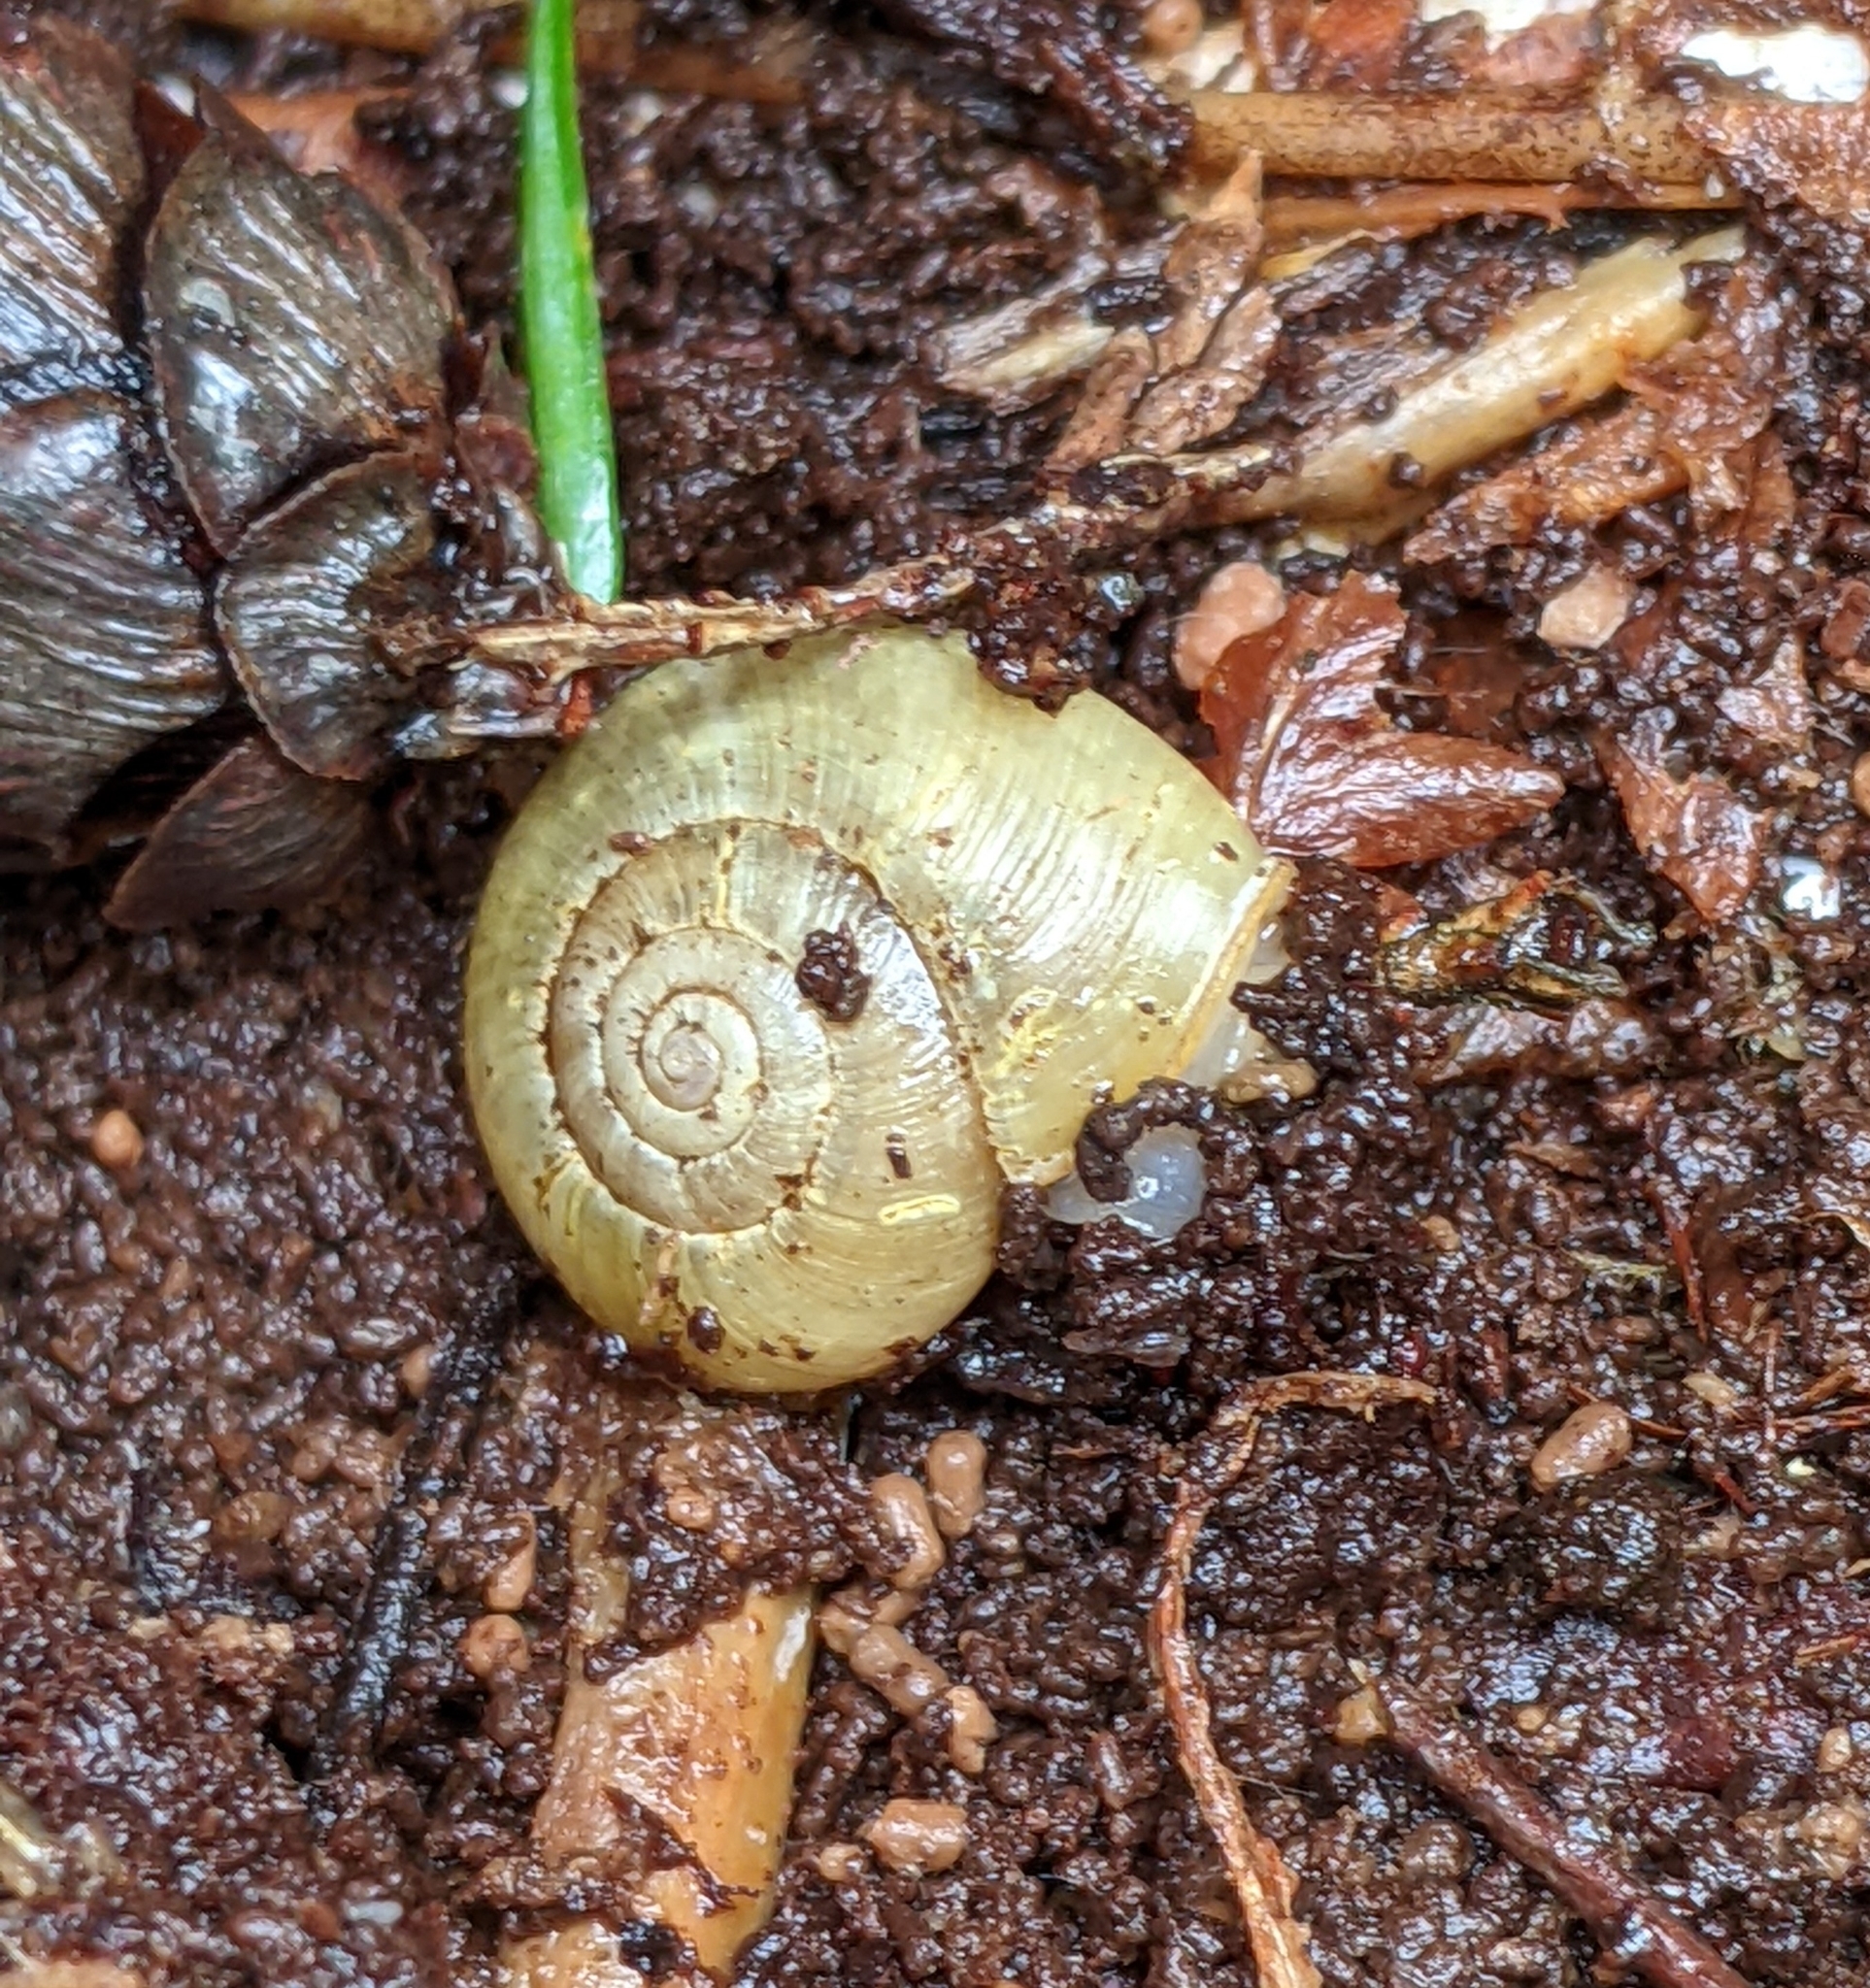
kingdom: Animalia
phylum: Mollusca
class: Gastropoda
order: Stylommatophora
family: Haplotrematidae
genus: Haplotrema
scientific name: Haplotrema vancouverense
